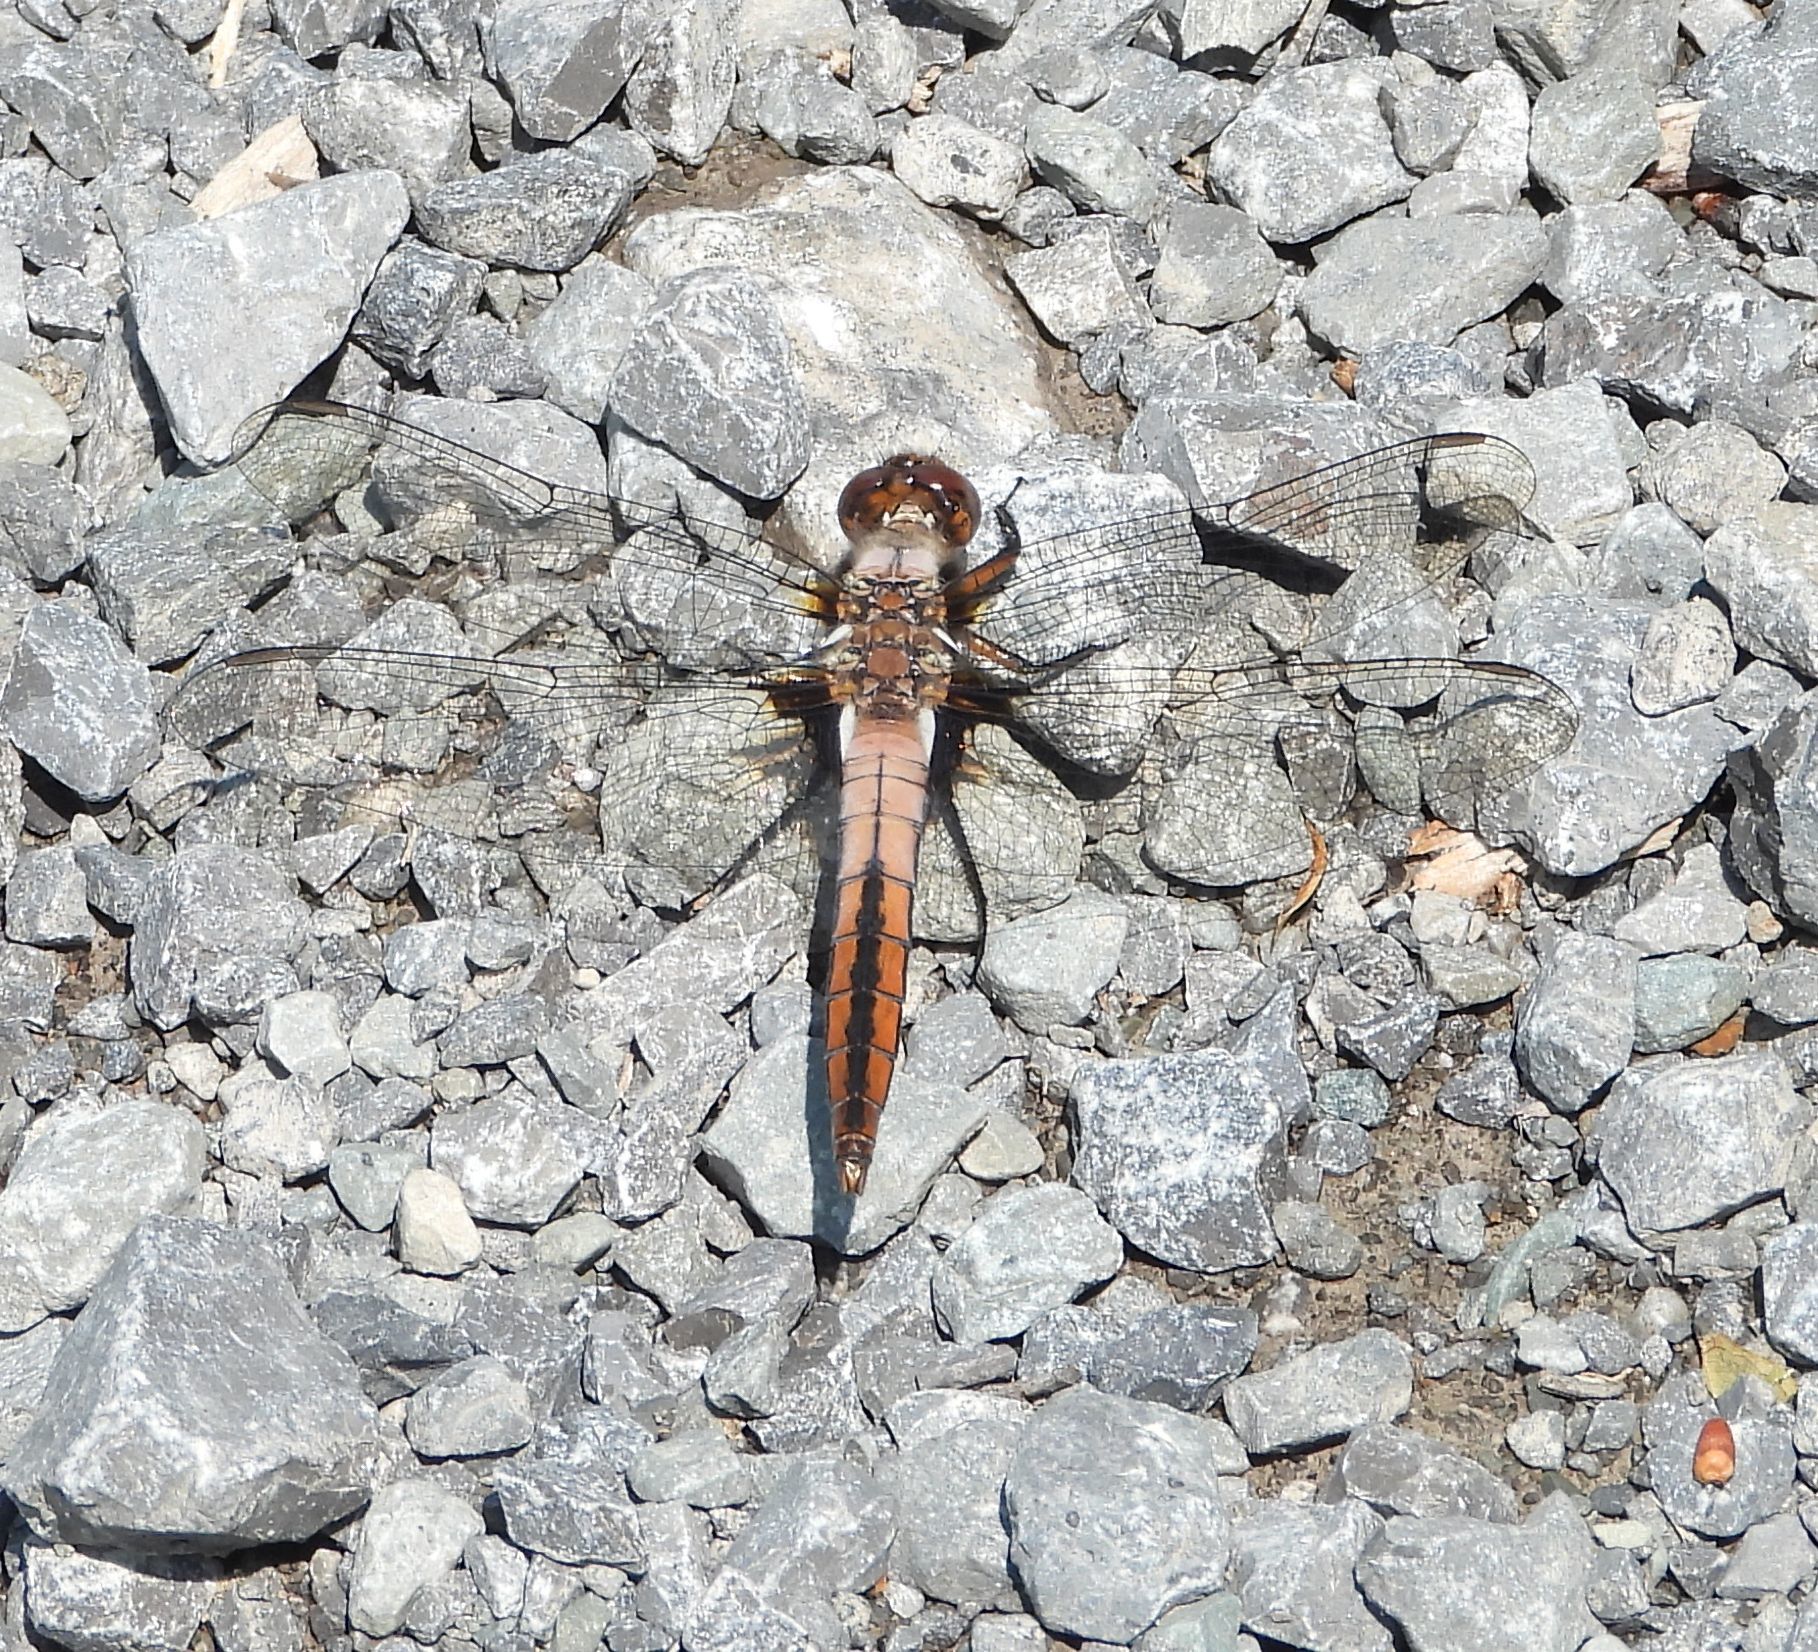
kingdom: Animalia
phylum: Arthropoda
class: Insecta
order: Odonata
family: Libellulidae
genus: Ladona
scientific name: Ladona julia
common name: Chalk-fronted corporal
